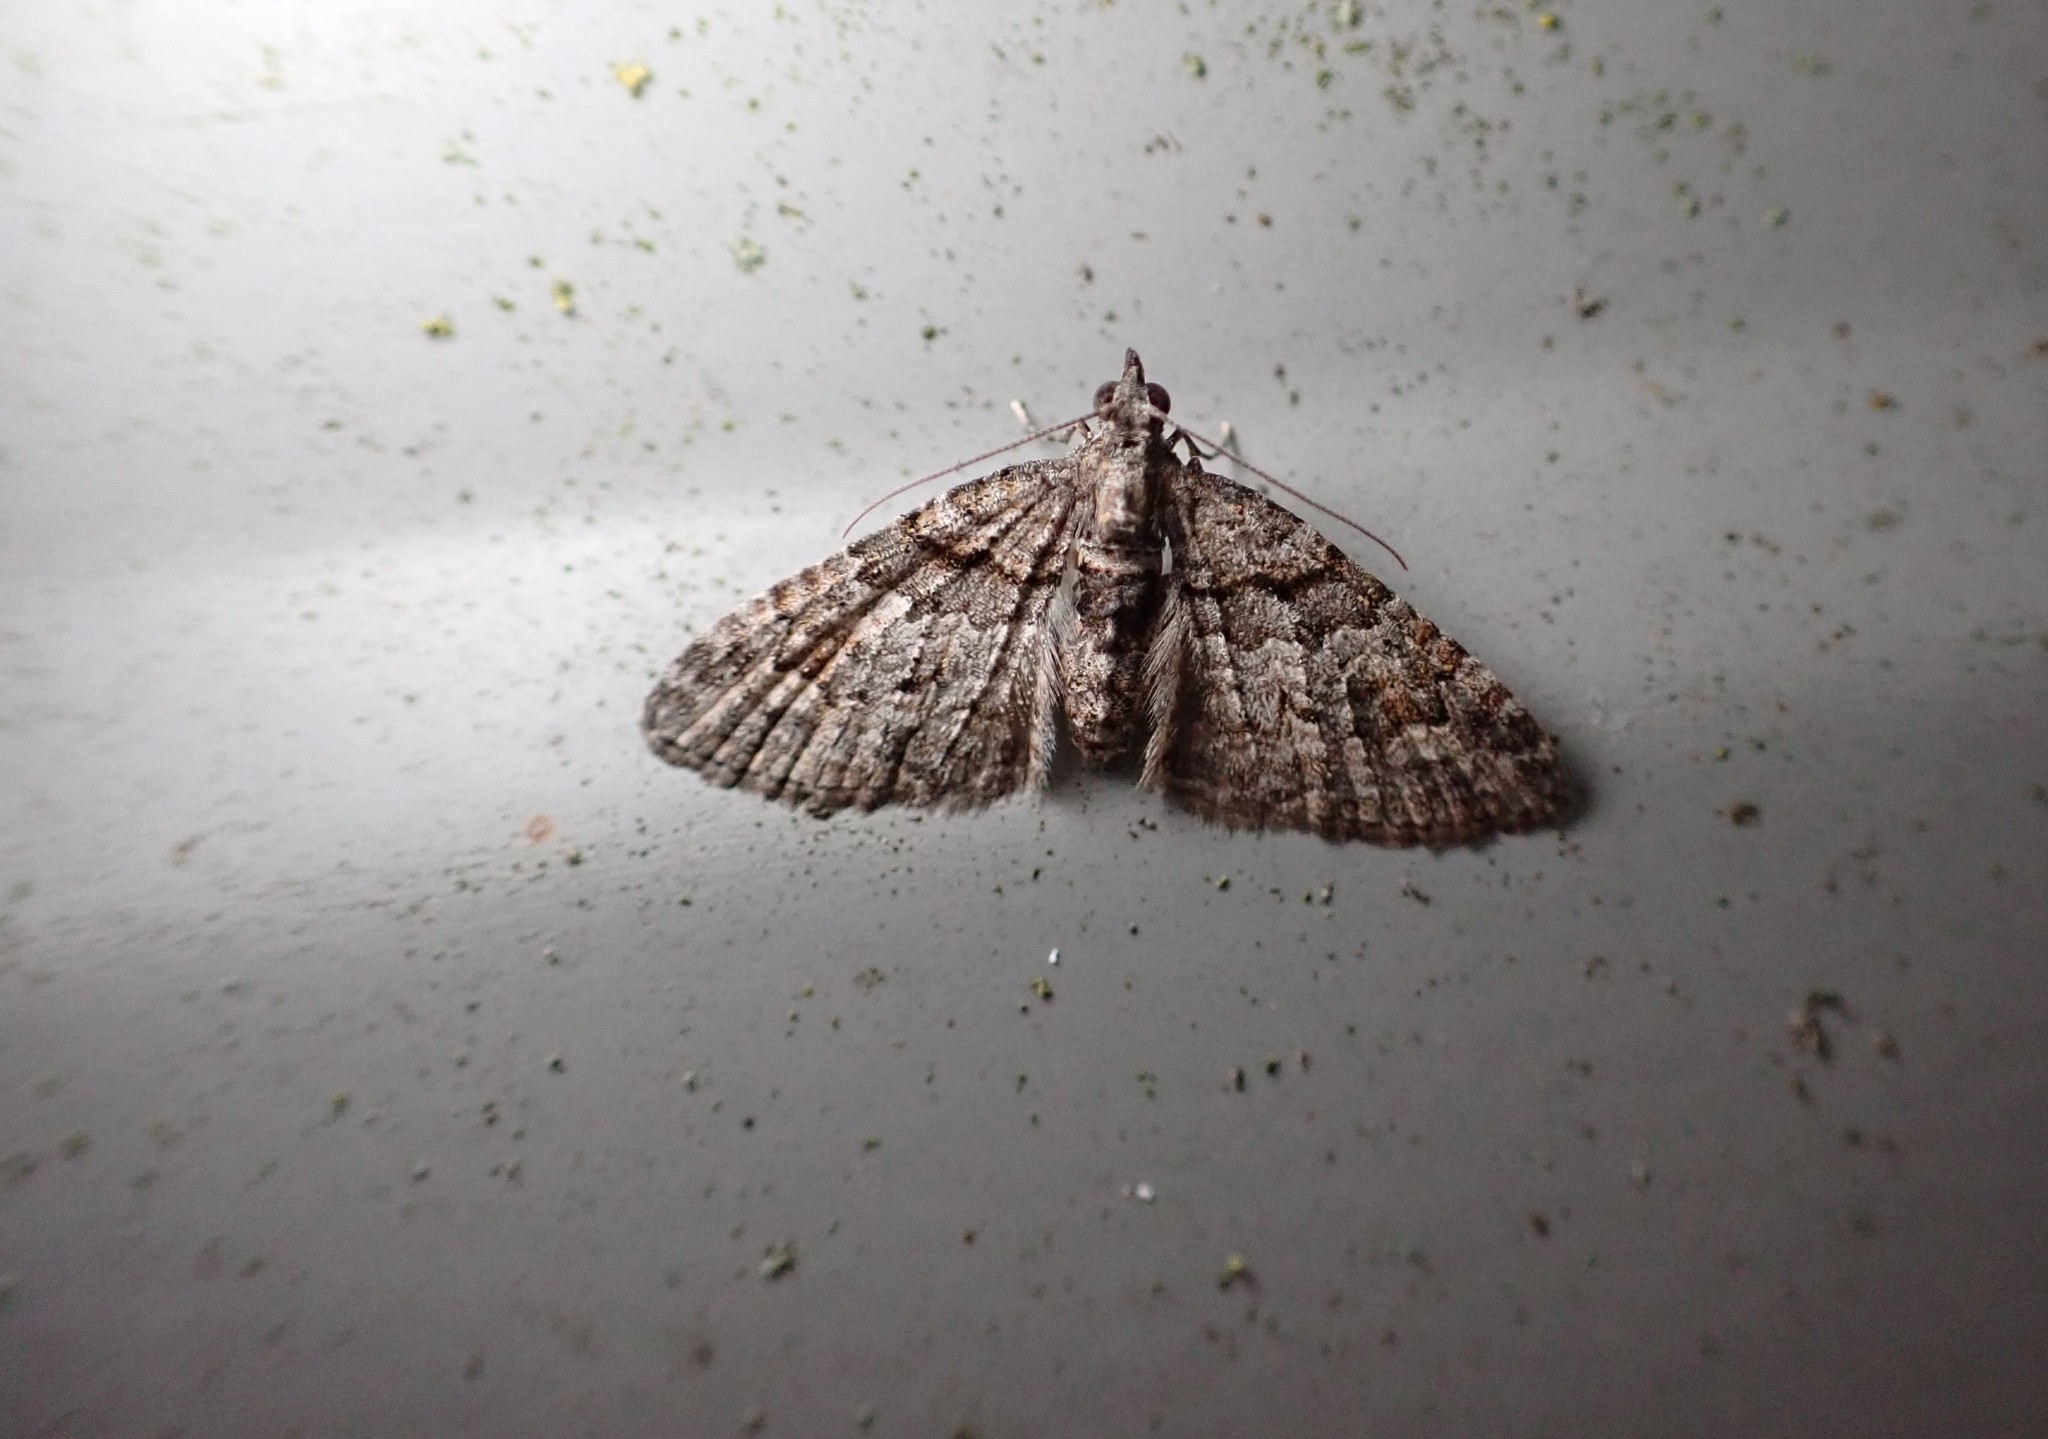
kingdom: Animalia
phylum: Arthropoda
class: Insecta
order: Lepidoptera
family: Geometridae
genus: Phrissogonus
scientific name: Phrissogonus laticostata
